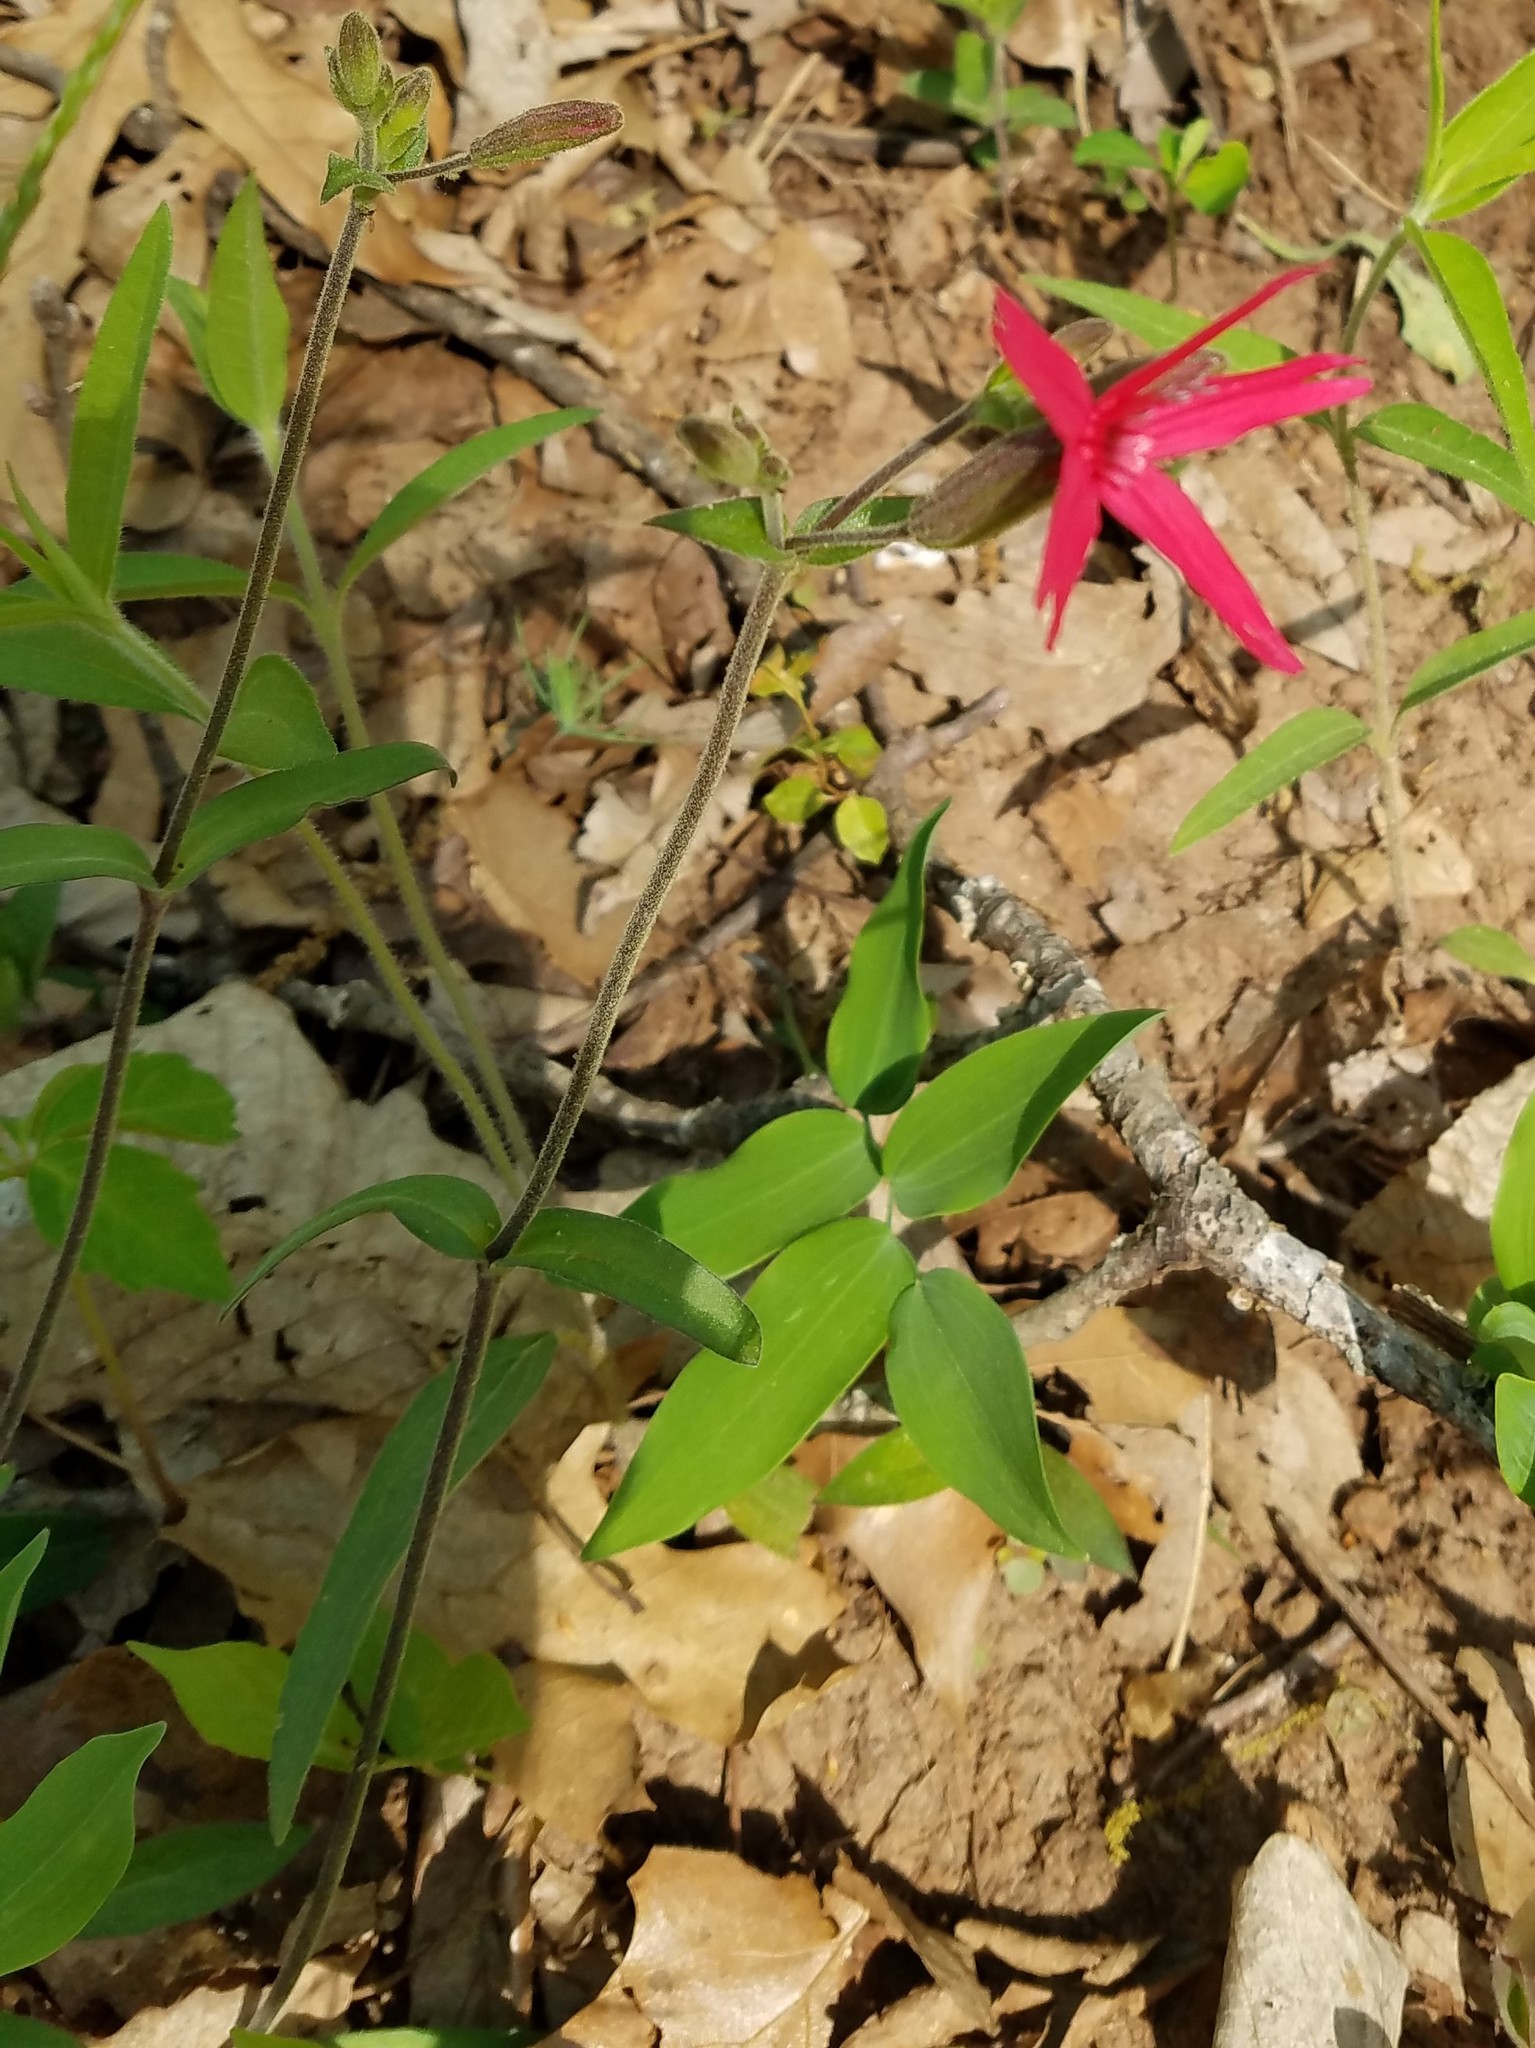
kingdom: Plantae
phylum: Tracheophyta
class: Magnoliopsida
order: Caryophyllales
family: Caryophyllaceae
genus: Silene
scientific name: Silene virginica
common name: Fire-pink
